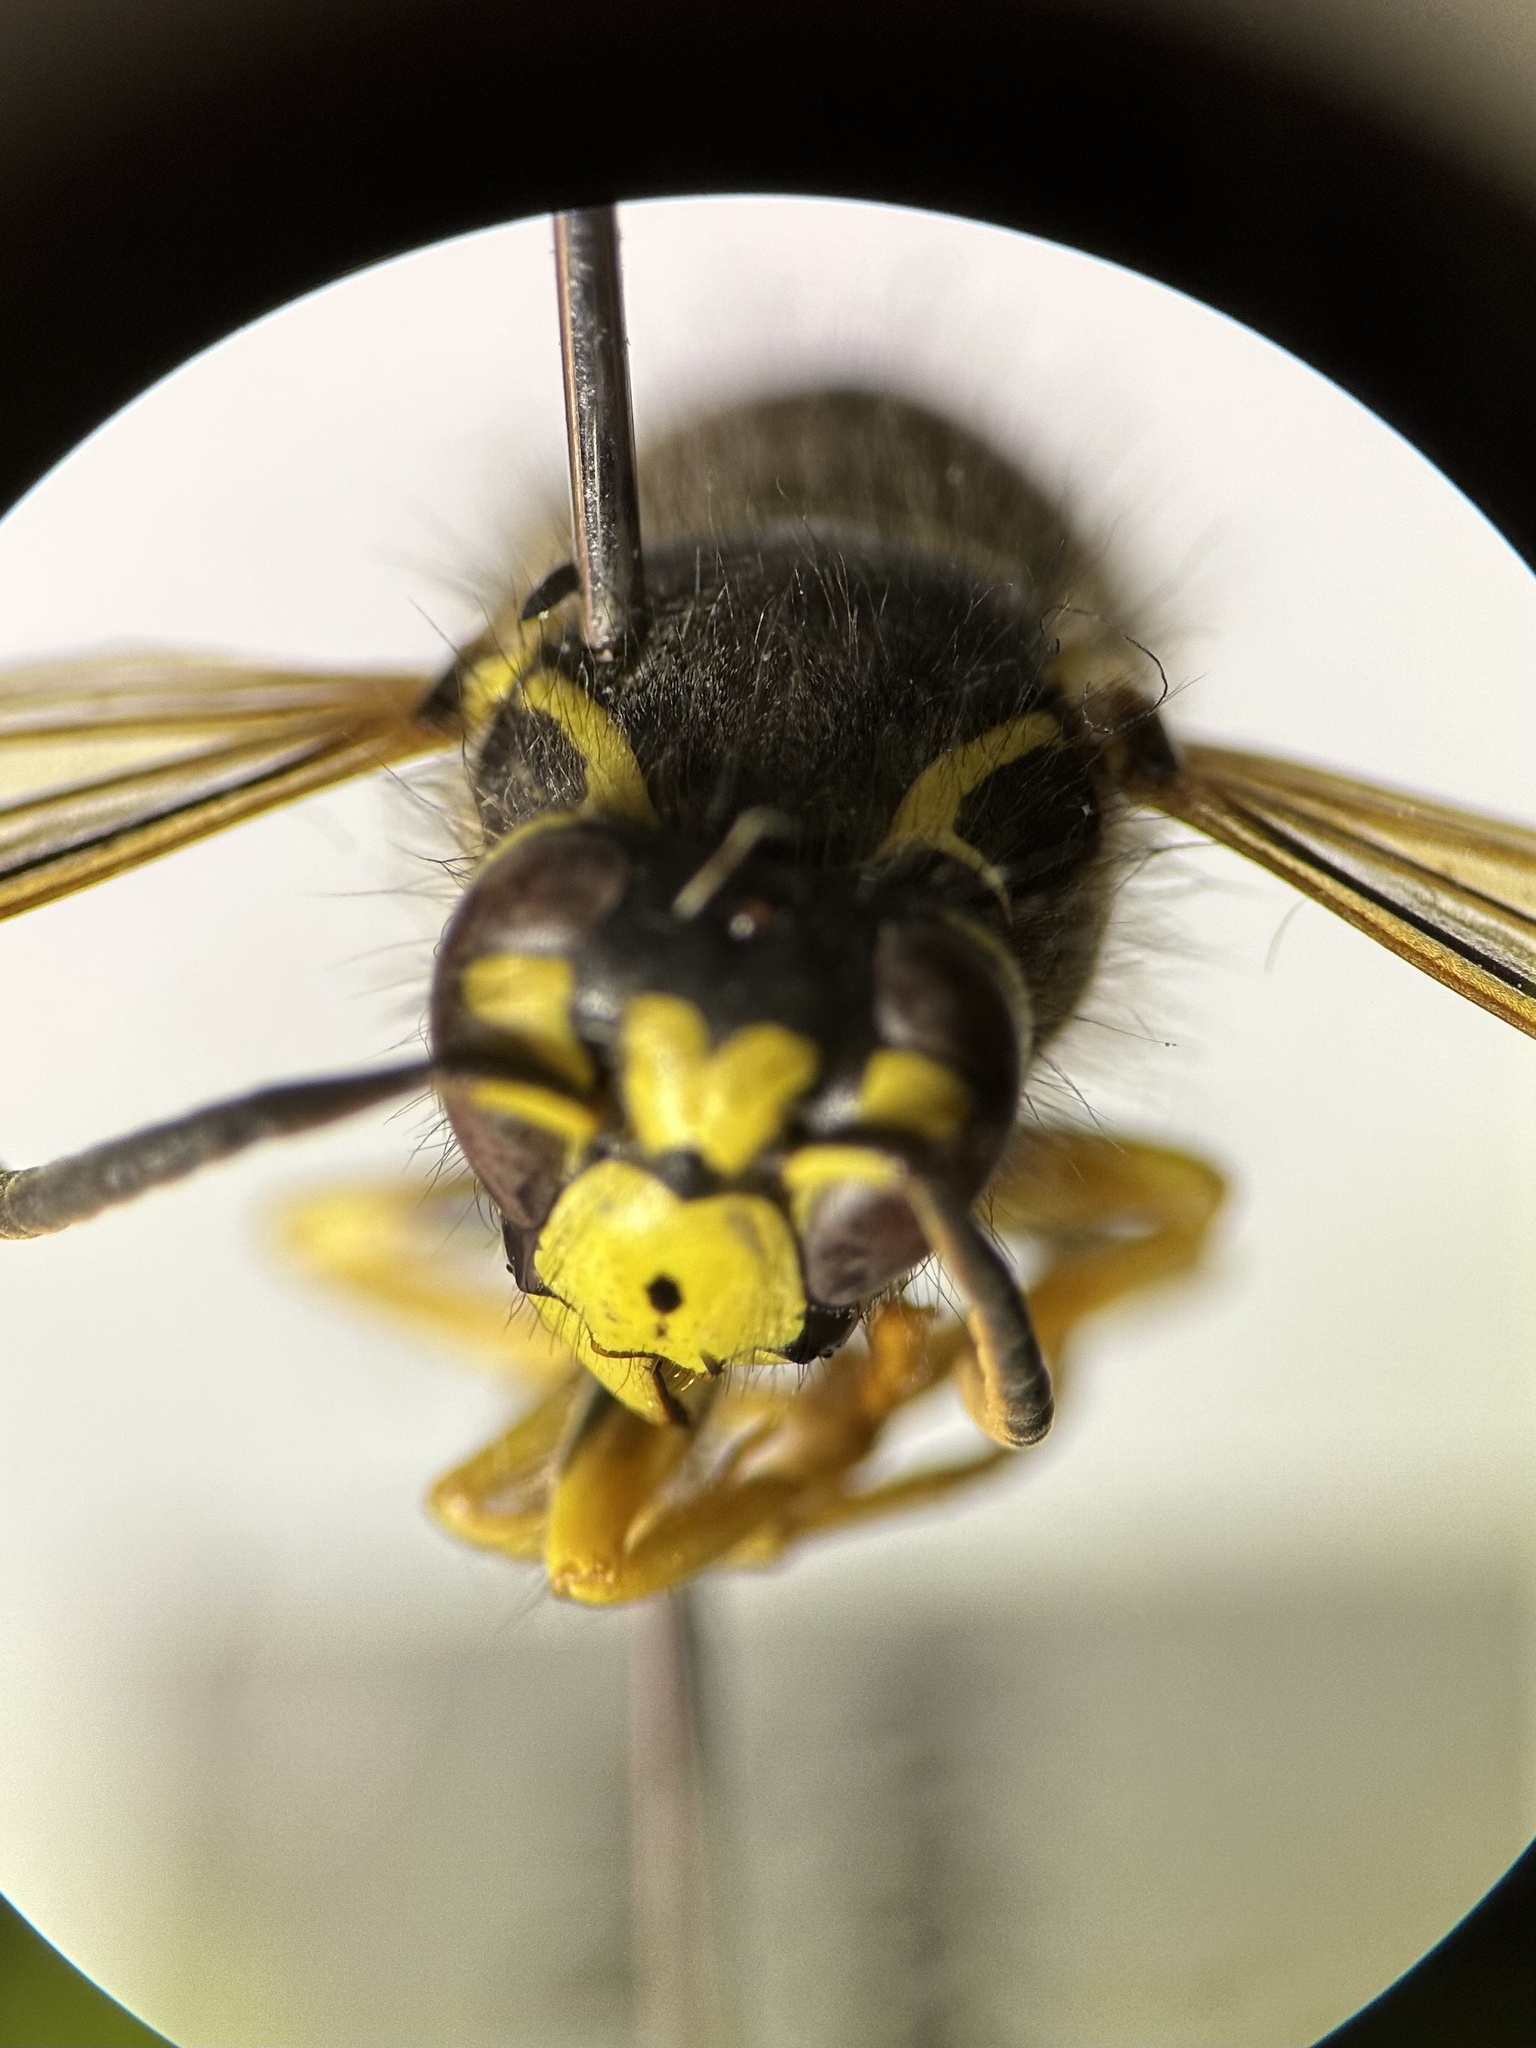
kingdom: Animalia
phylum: Arthropoda
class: Insecta
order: Hymenoptera
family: Vespidae
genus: Dolichovespula
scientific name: Dolichovespula arenaria
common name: Aerial yellowjacket
